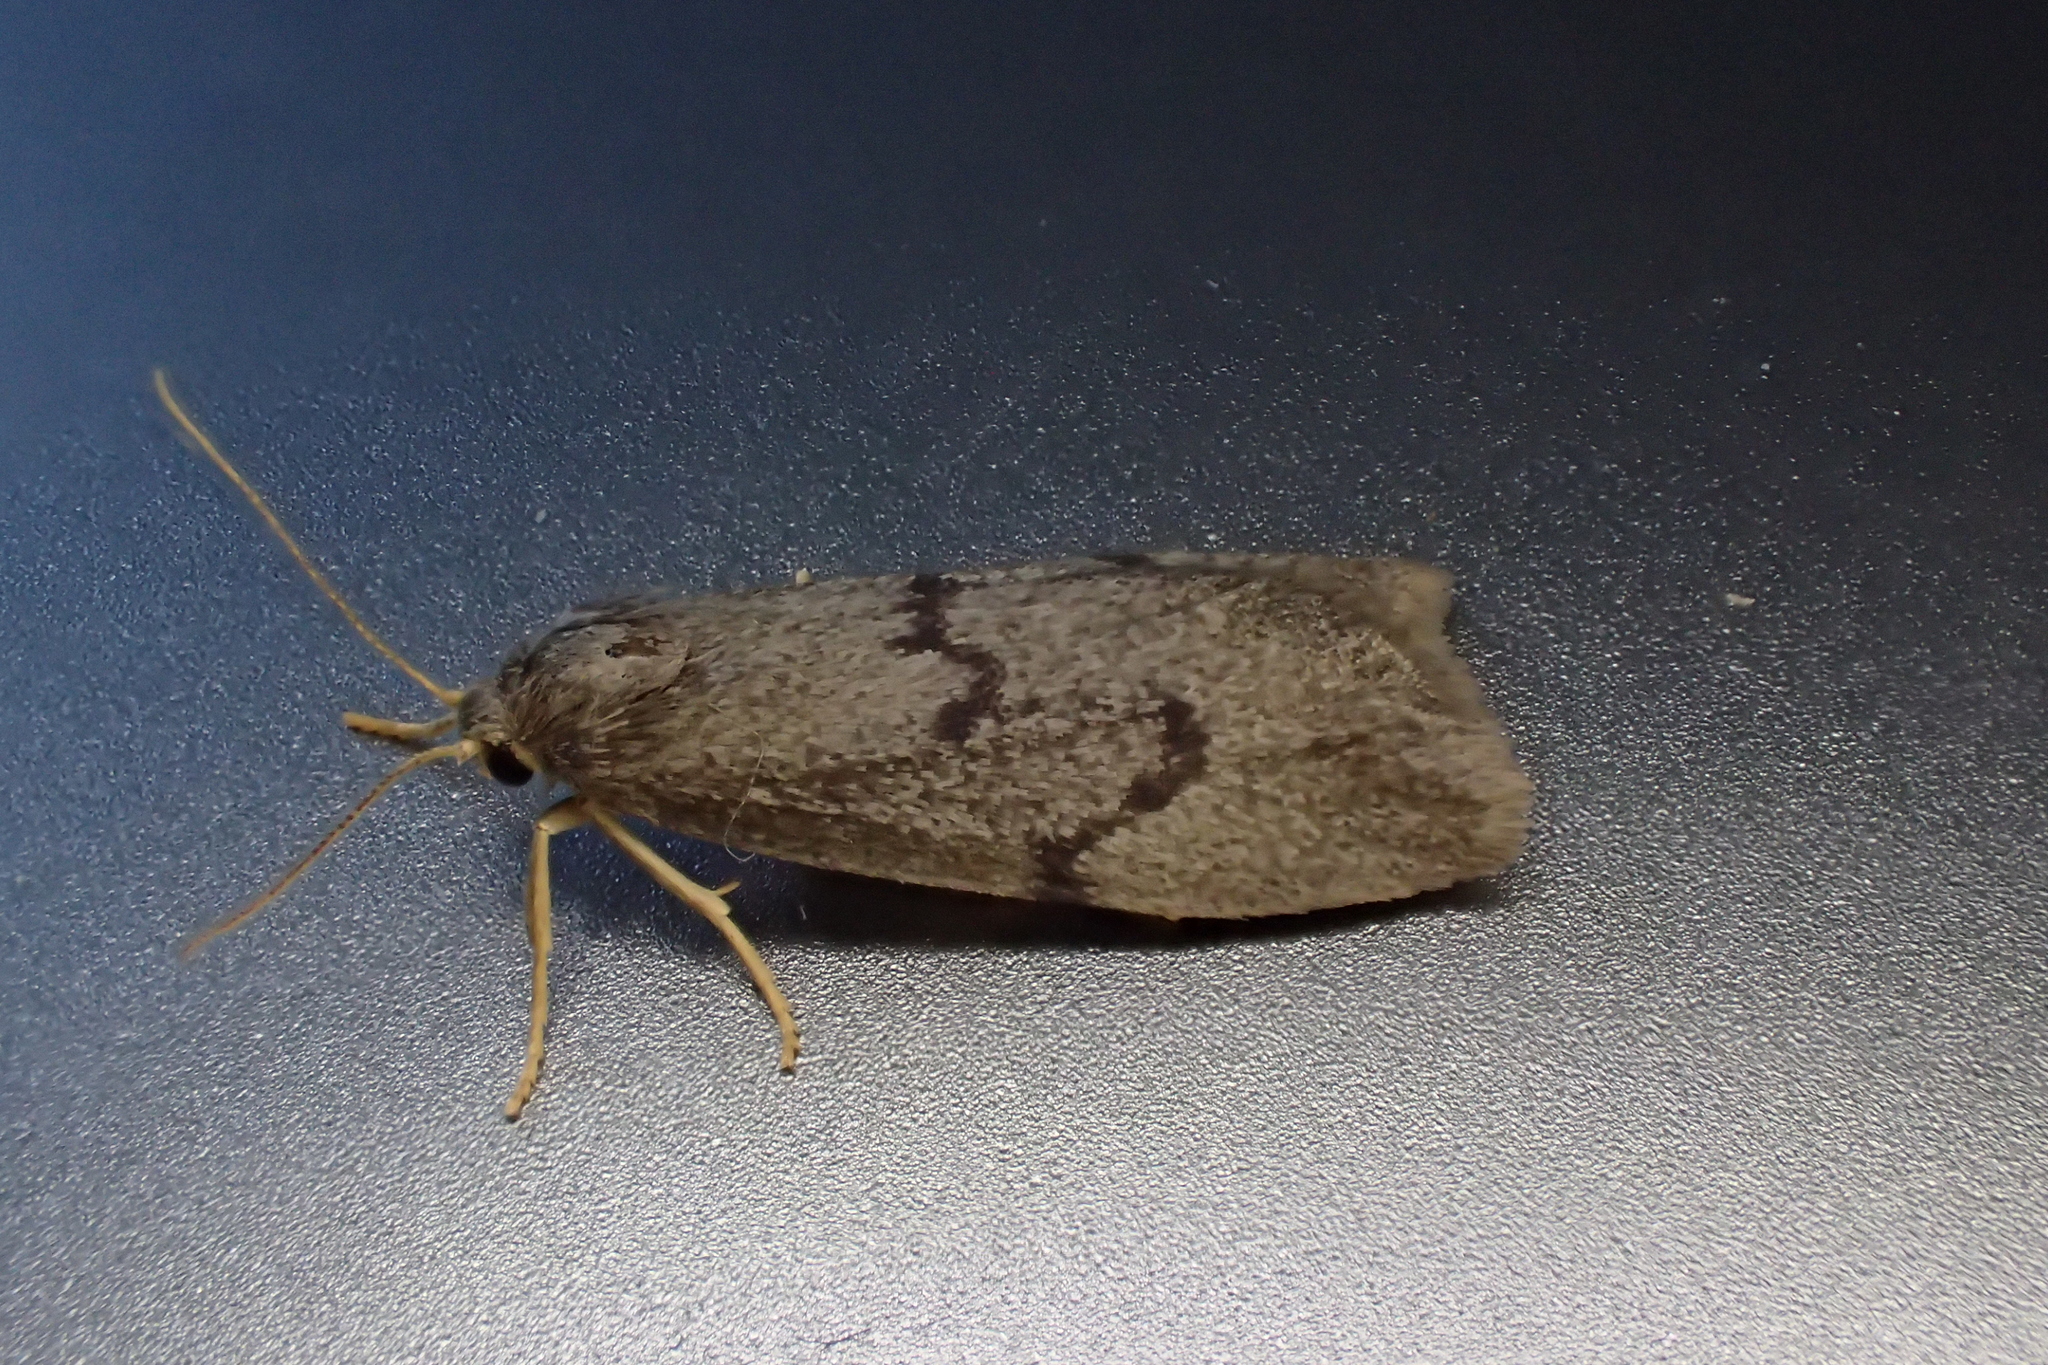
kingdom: Animalia
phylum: Arthropoda
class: Insecta
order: Lepidoptera
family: Erebidae
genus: Apaidia
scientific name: Apaidia mesogona
